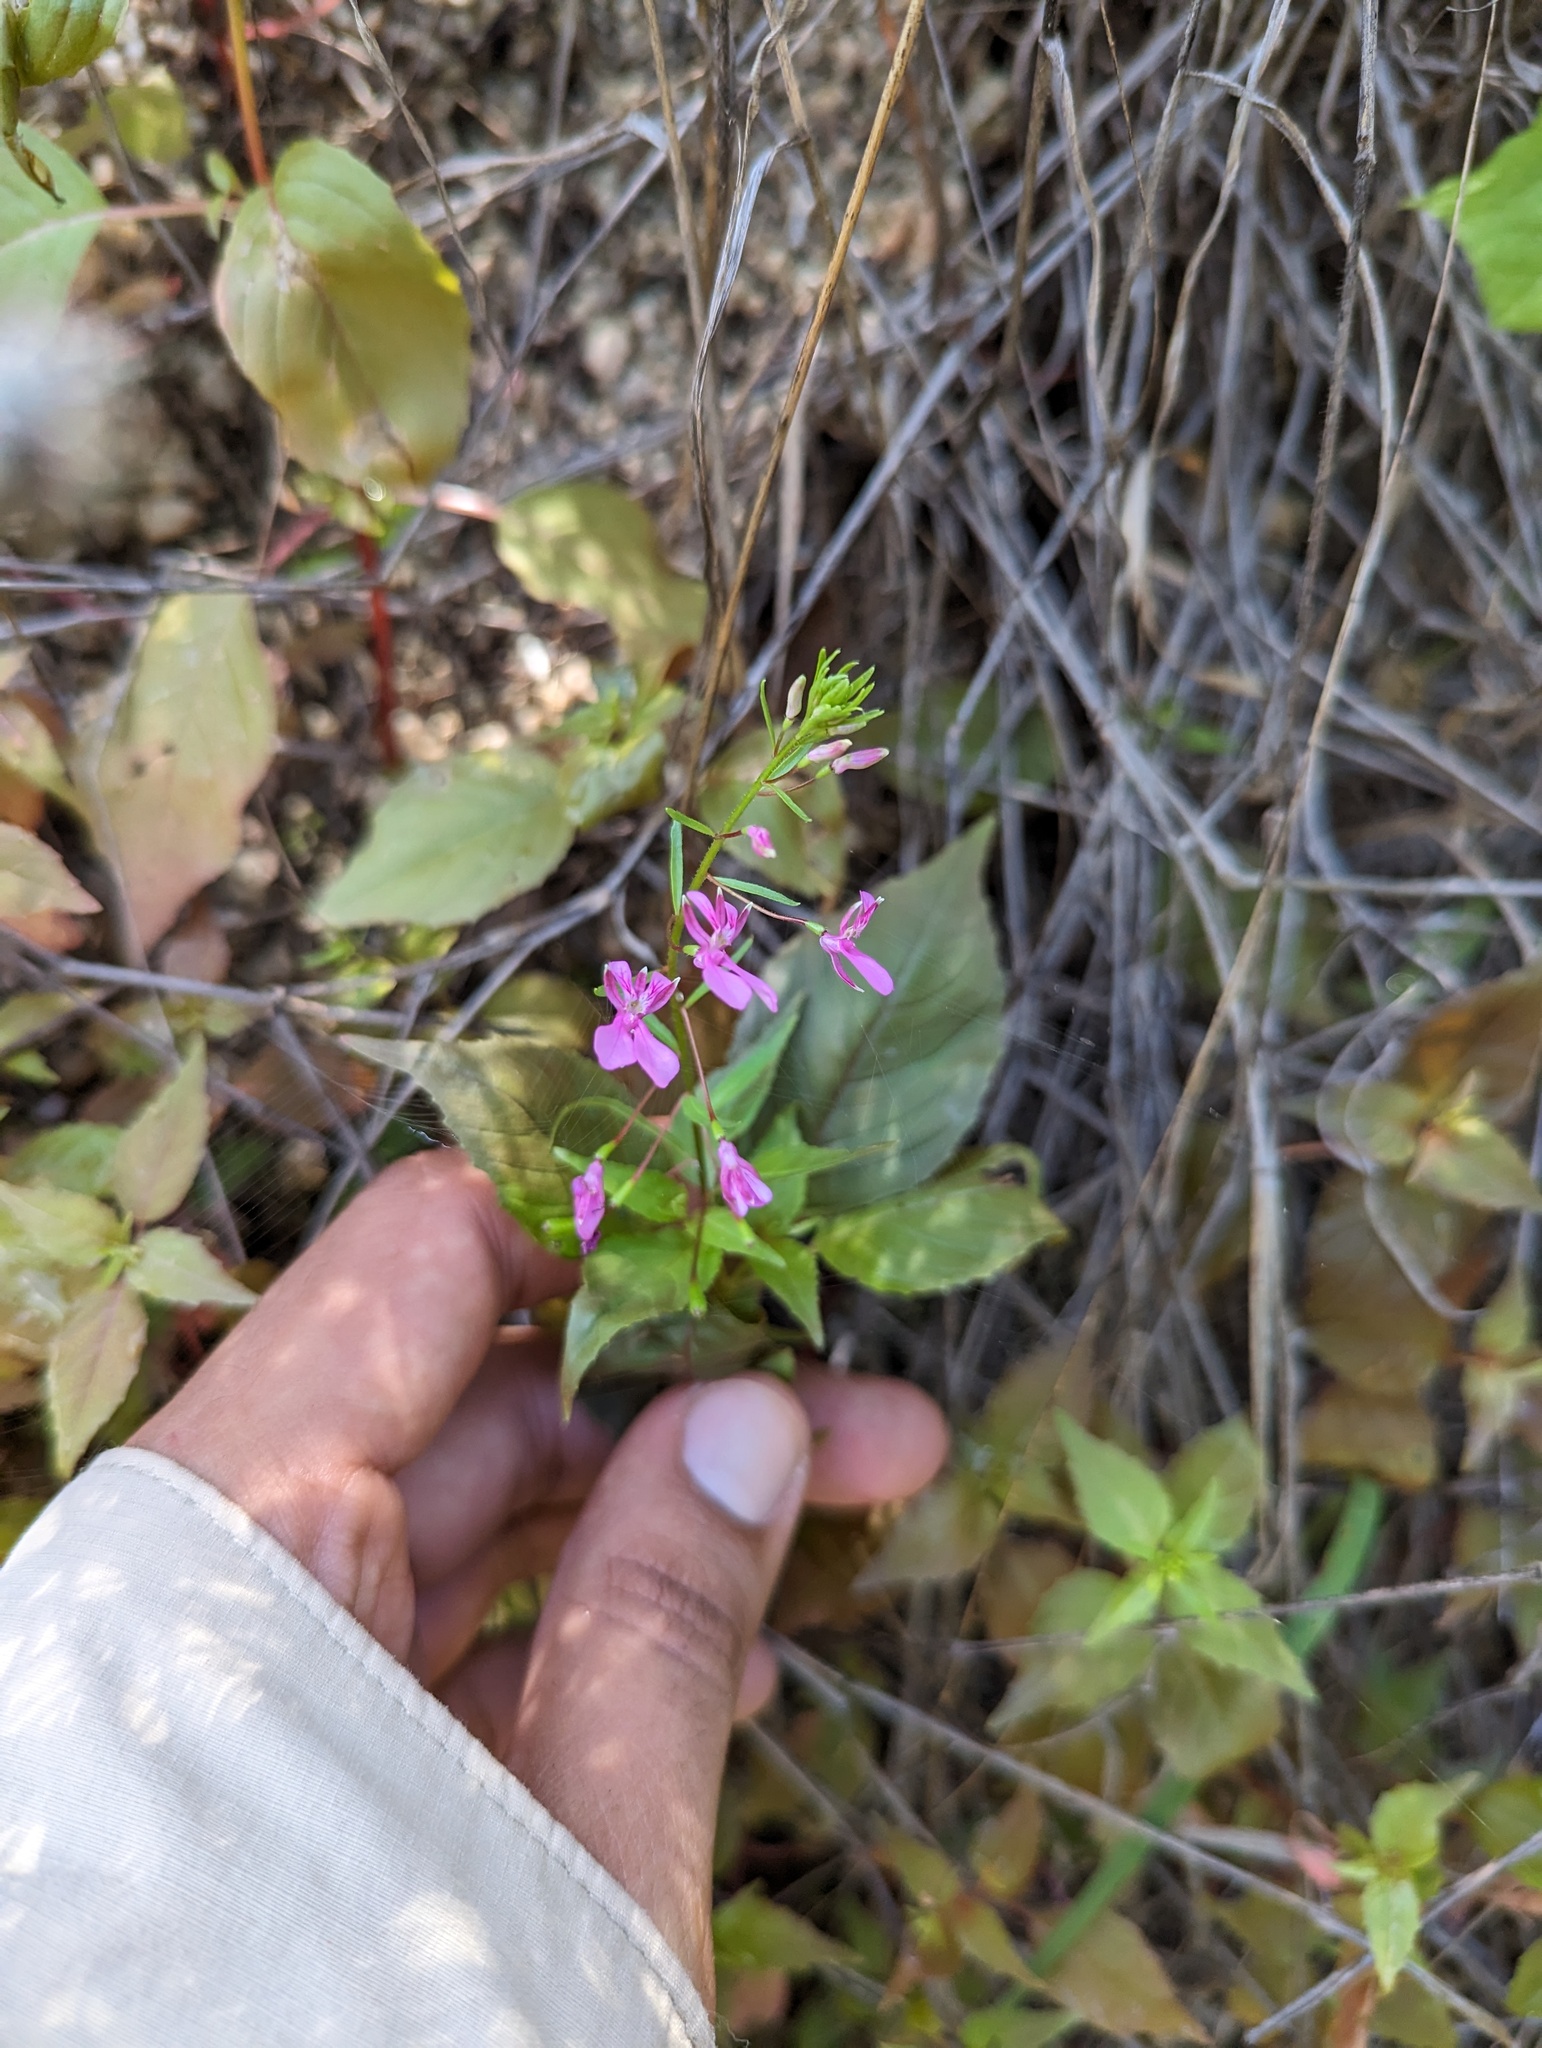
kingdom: Plantae
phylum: Tracheophyta
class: Magnoliopsida
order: Myrtales
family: Onagraceae
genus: Lopezia
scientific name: Lopezia clavata
